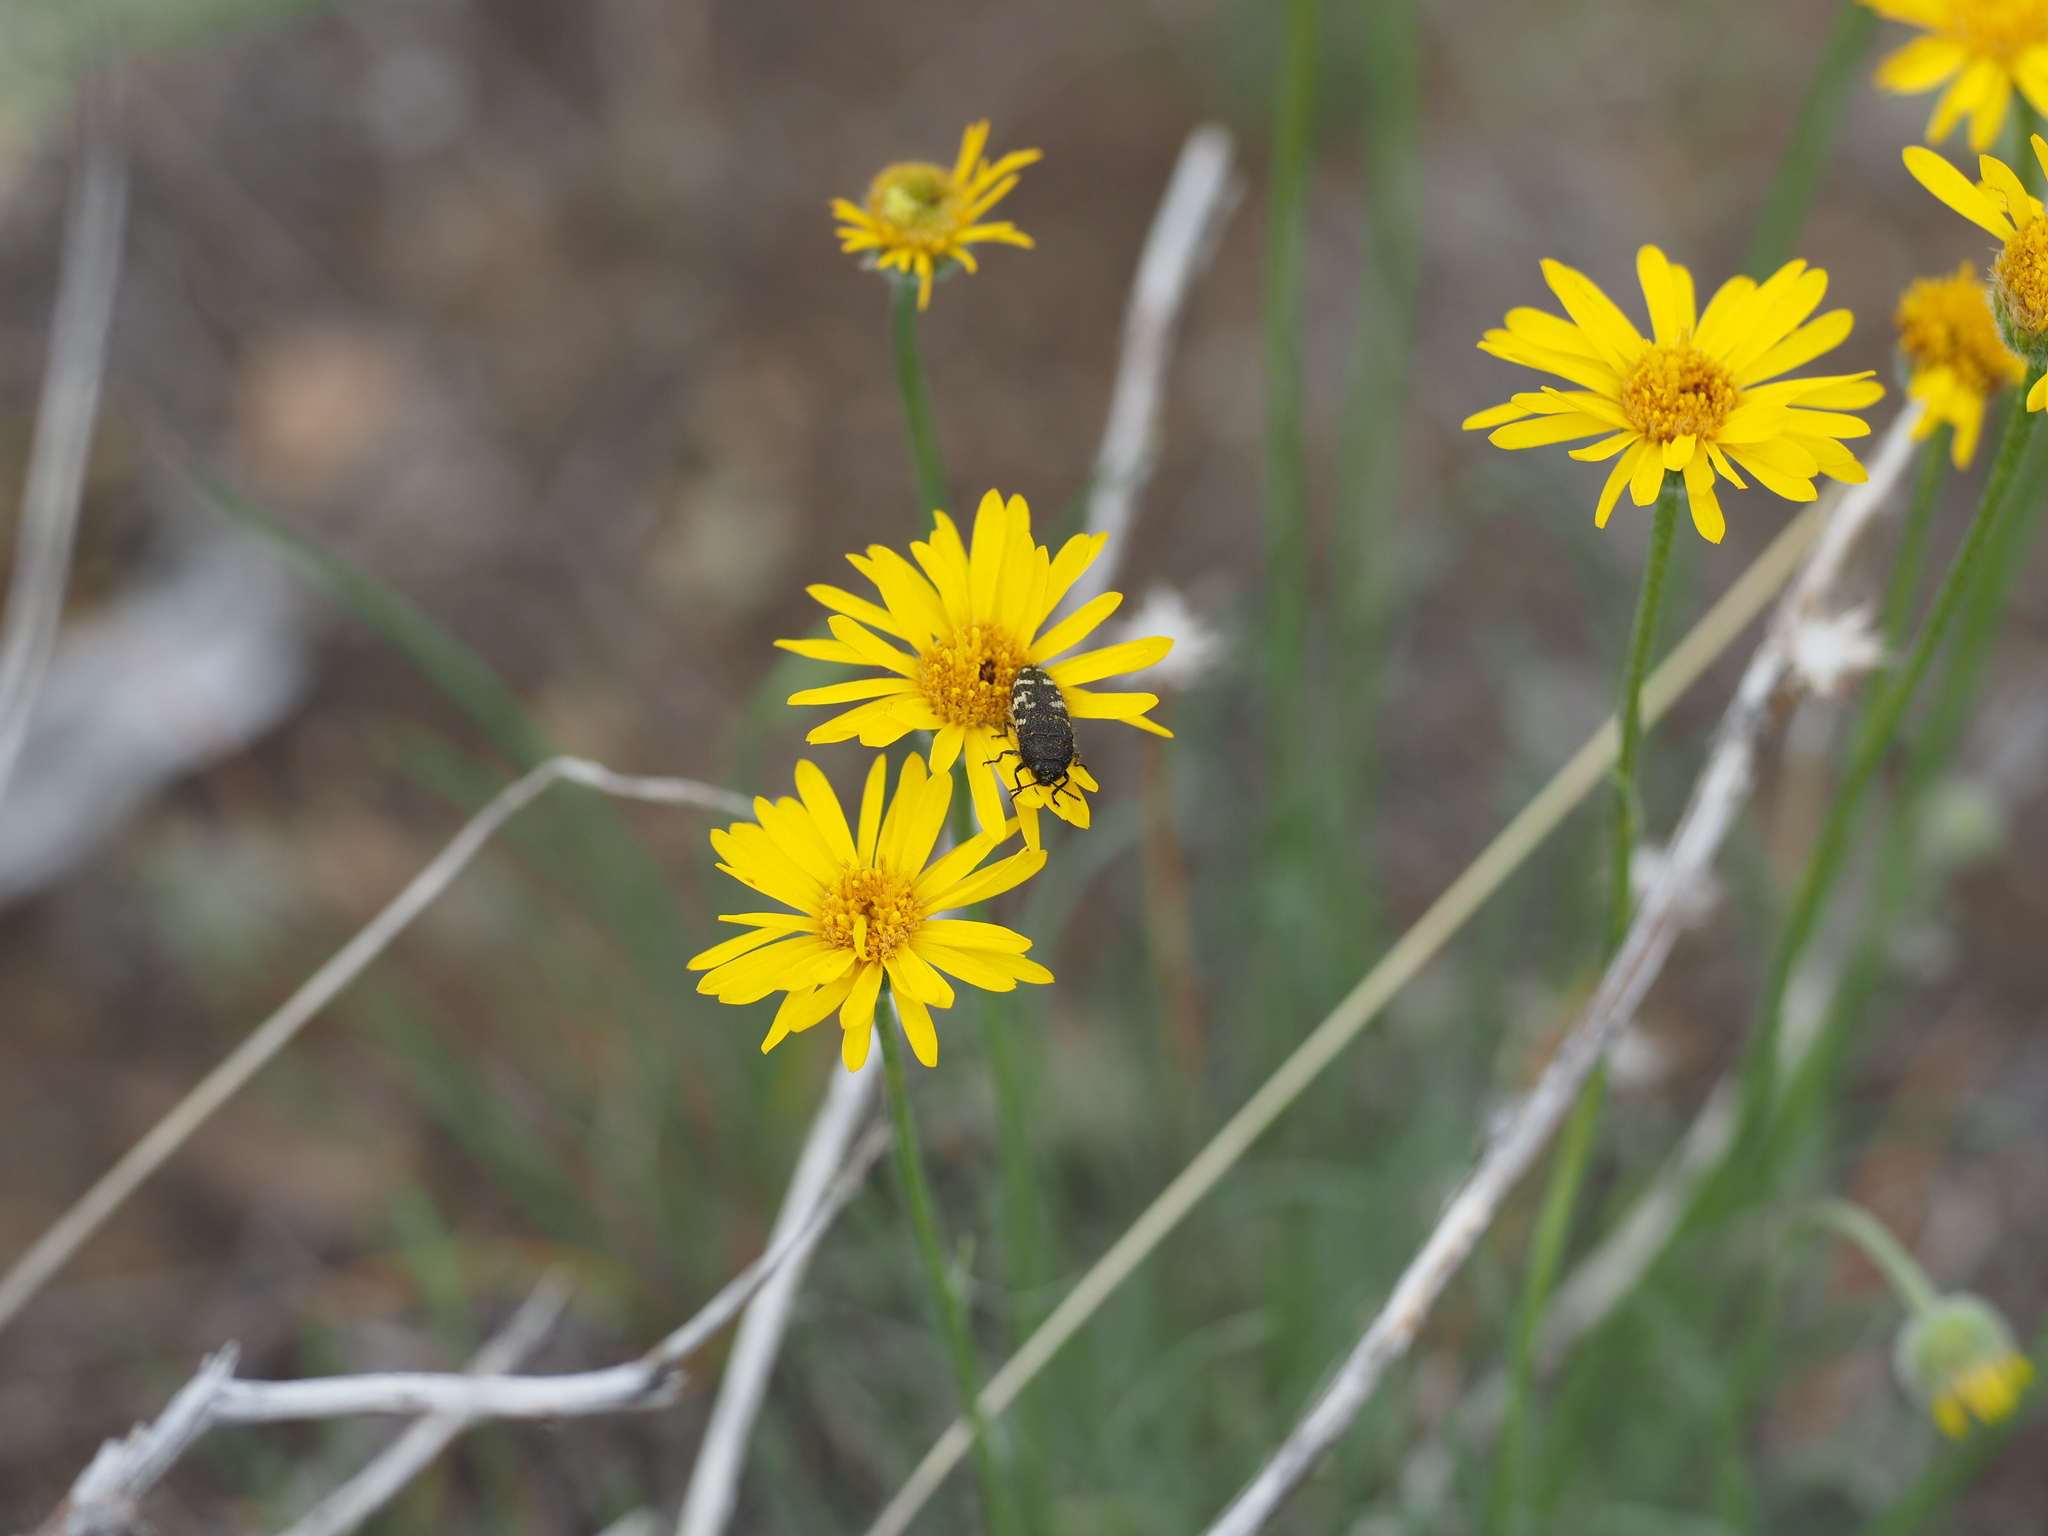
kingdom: Plantae
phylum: Tracheophyta
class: Magnoliopsida
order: Asterales
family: Asteraceae
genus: Erigeron
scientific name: Erigeron linearis
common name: Desert yellow fleabane
